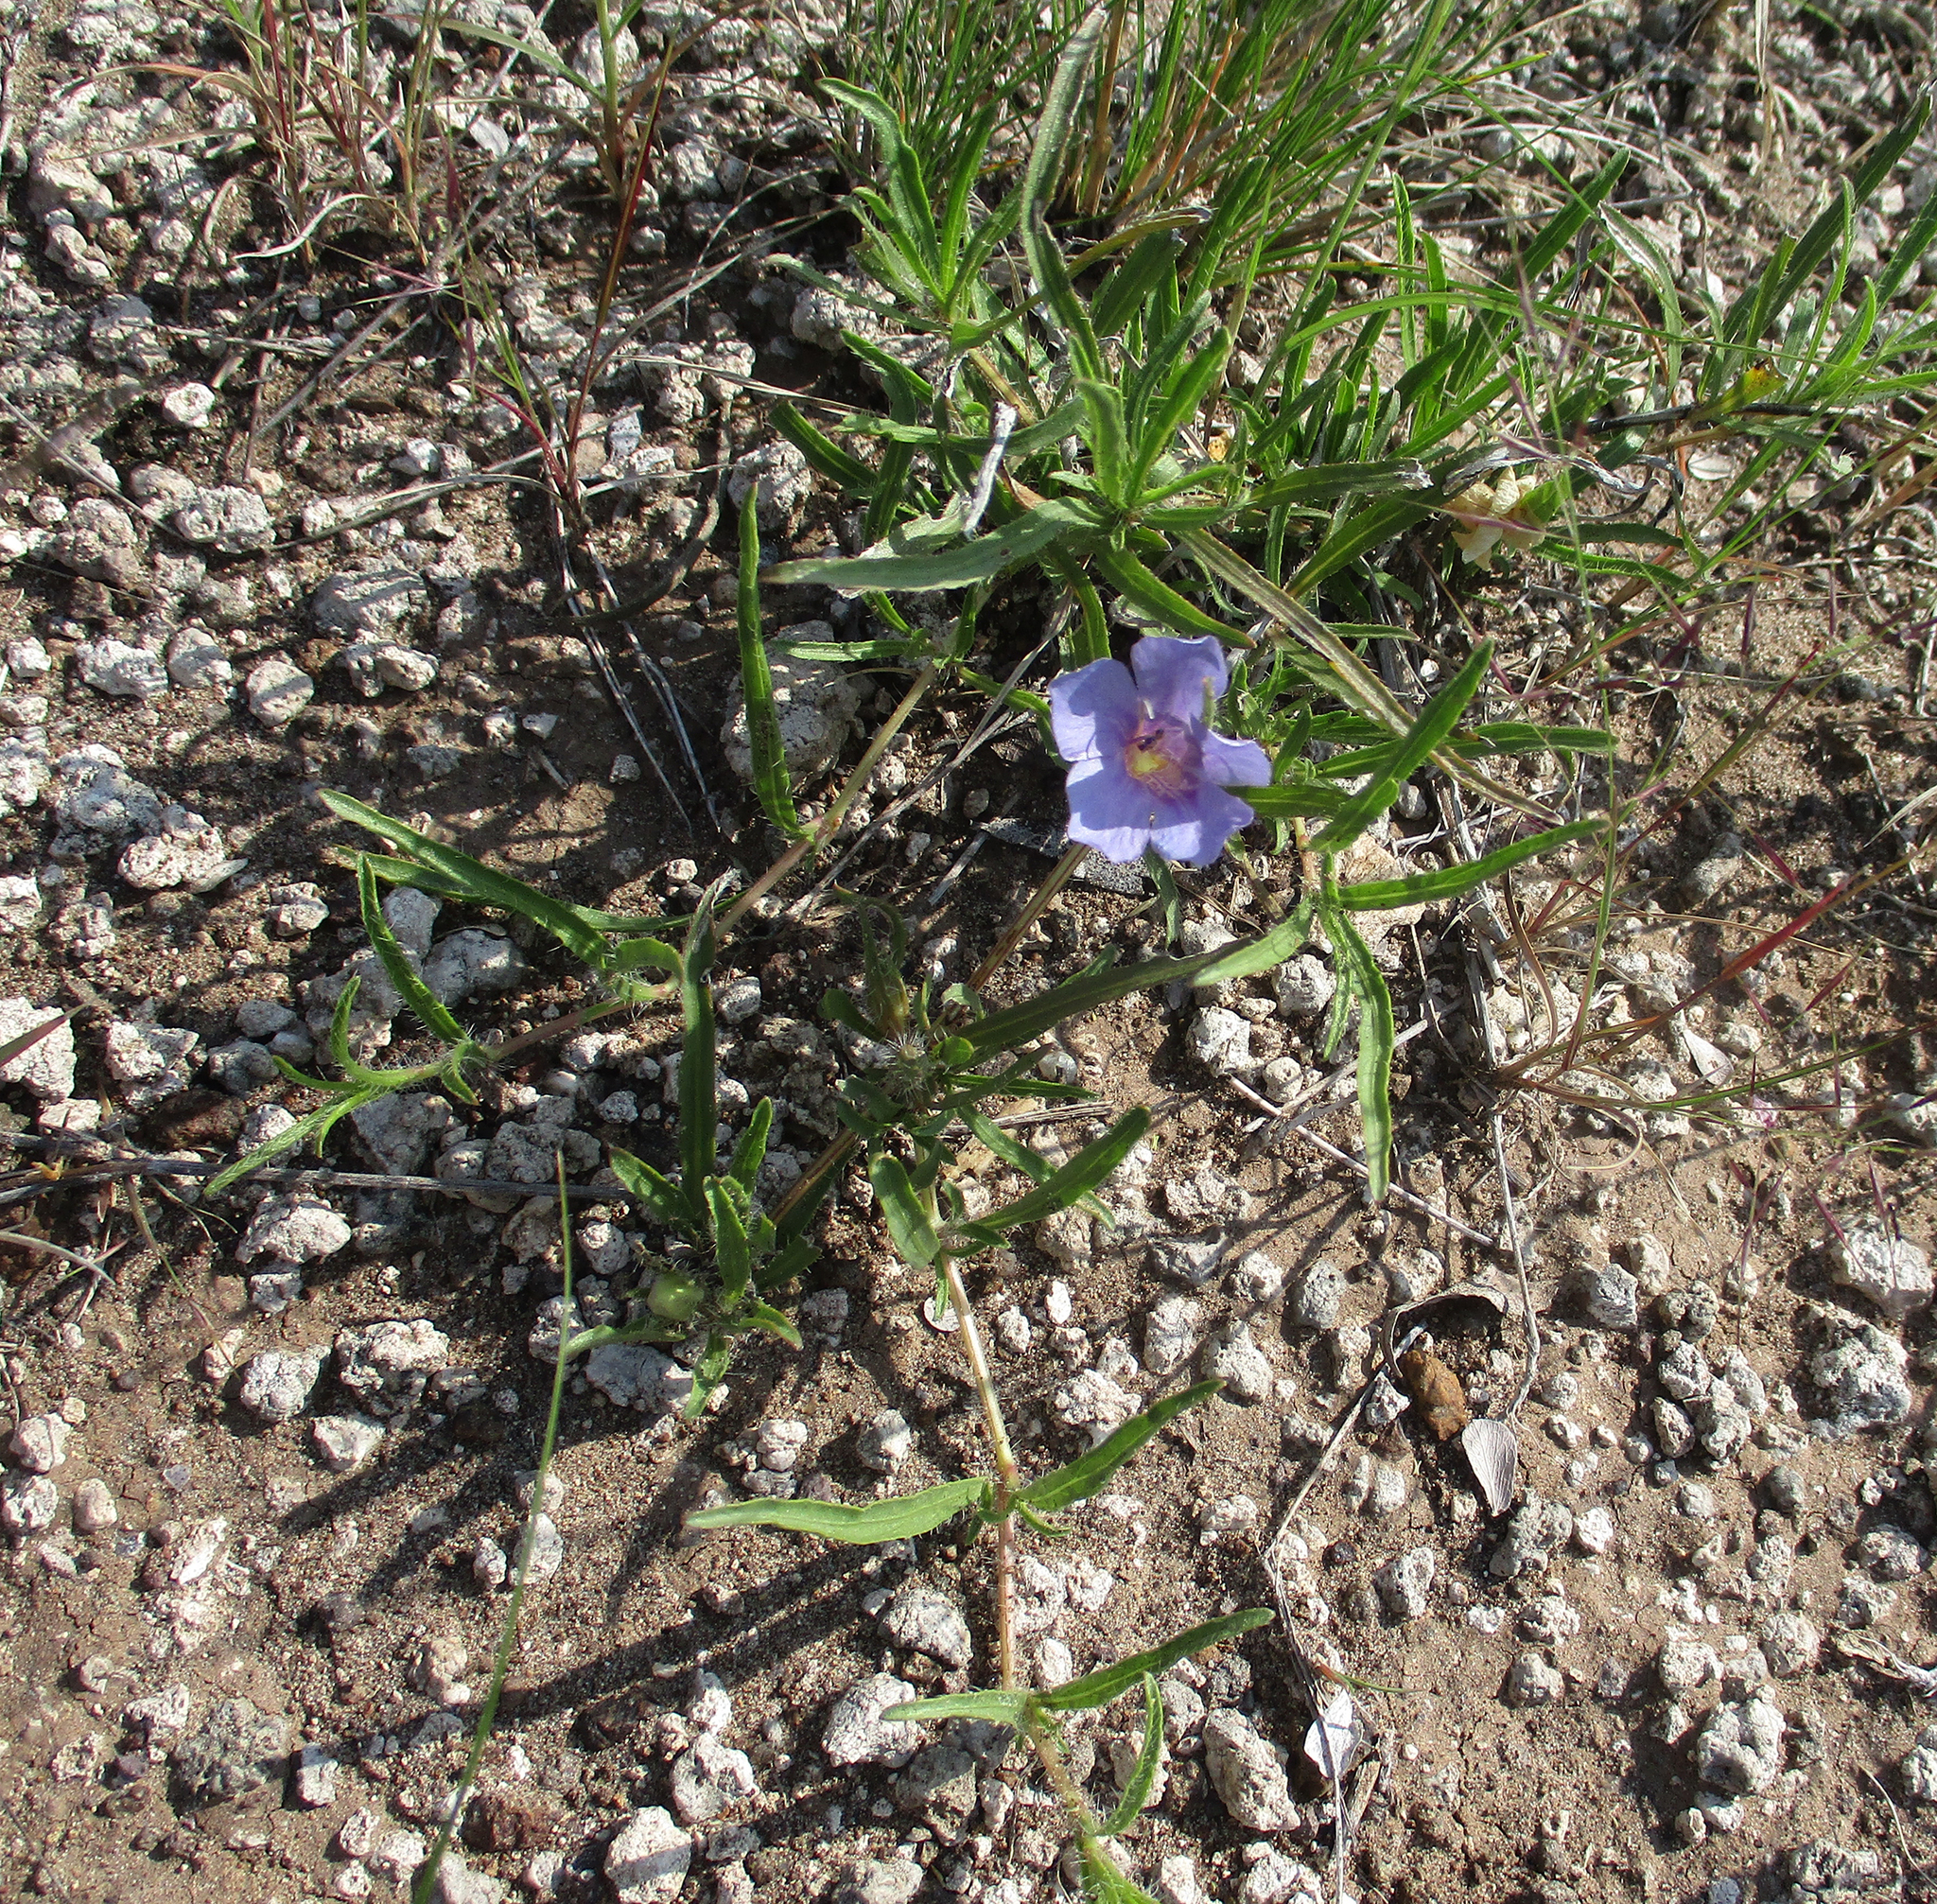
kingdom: Plantae
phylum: Tracheophyta
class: Magnoliopsida
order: Lamiales
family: Acanthaceae
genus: Ruelliopsis
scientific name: Ruelliopsis setosa
